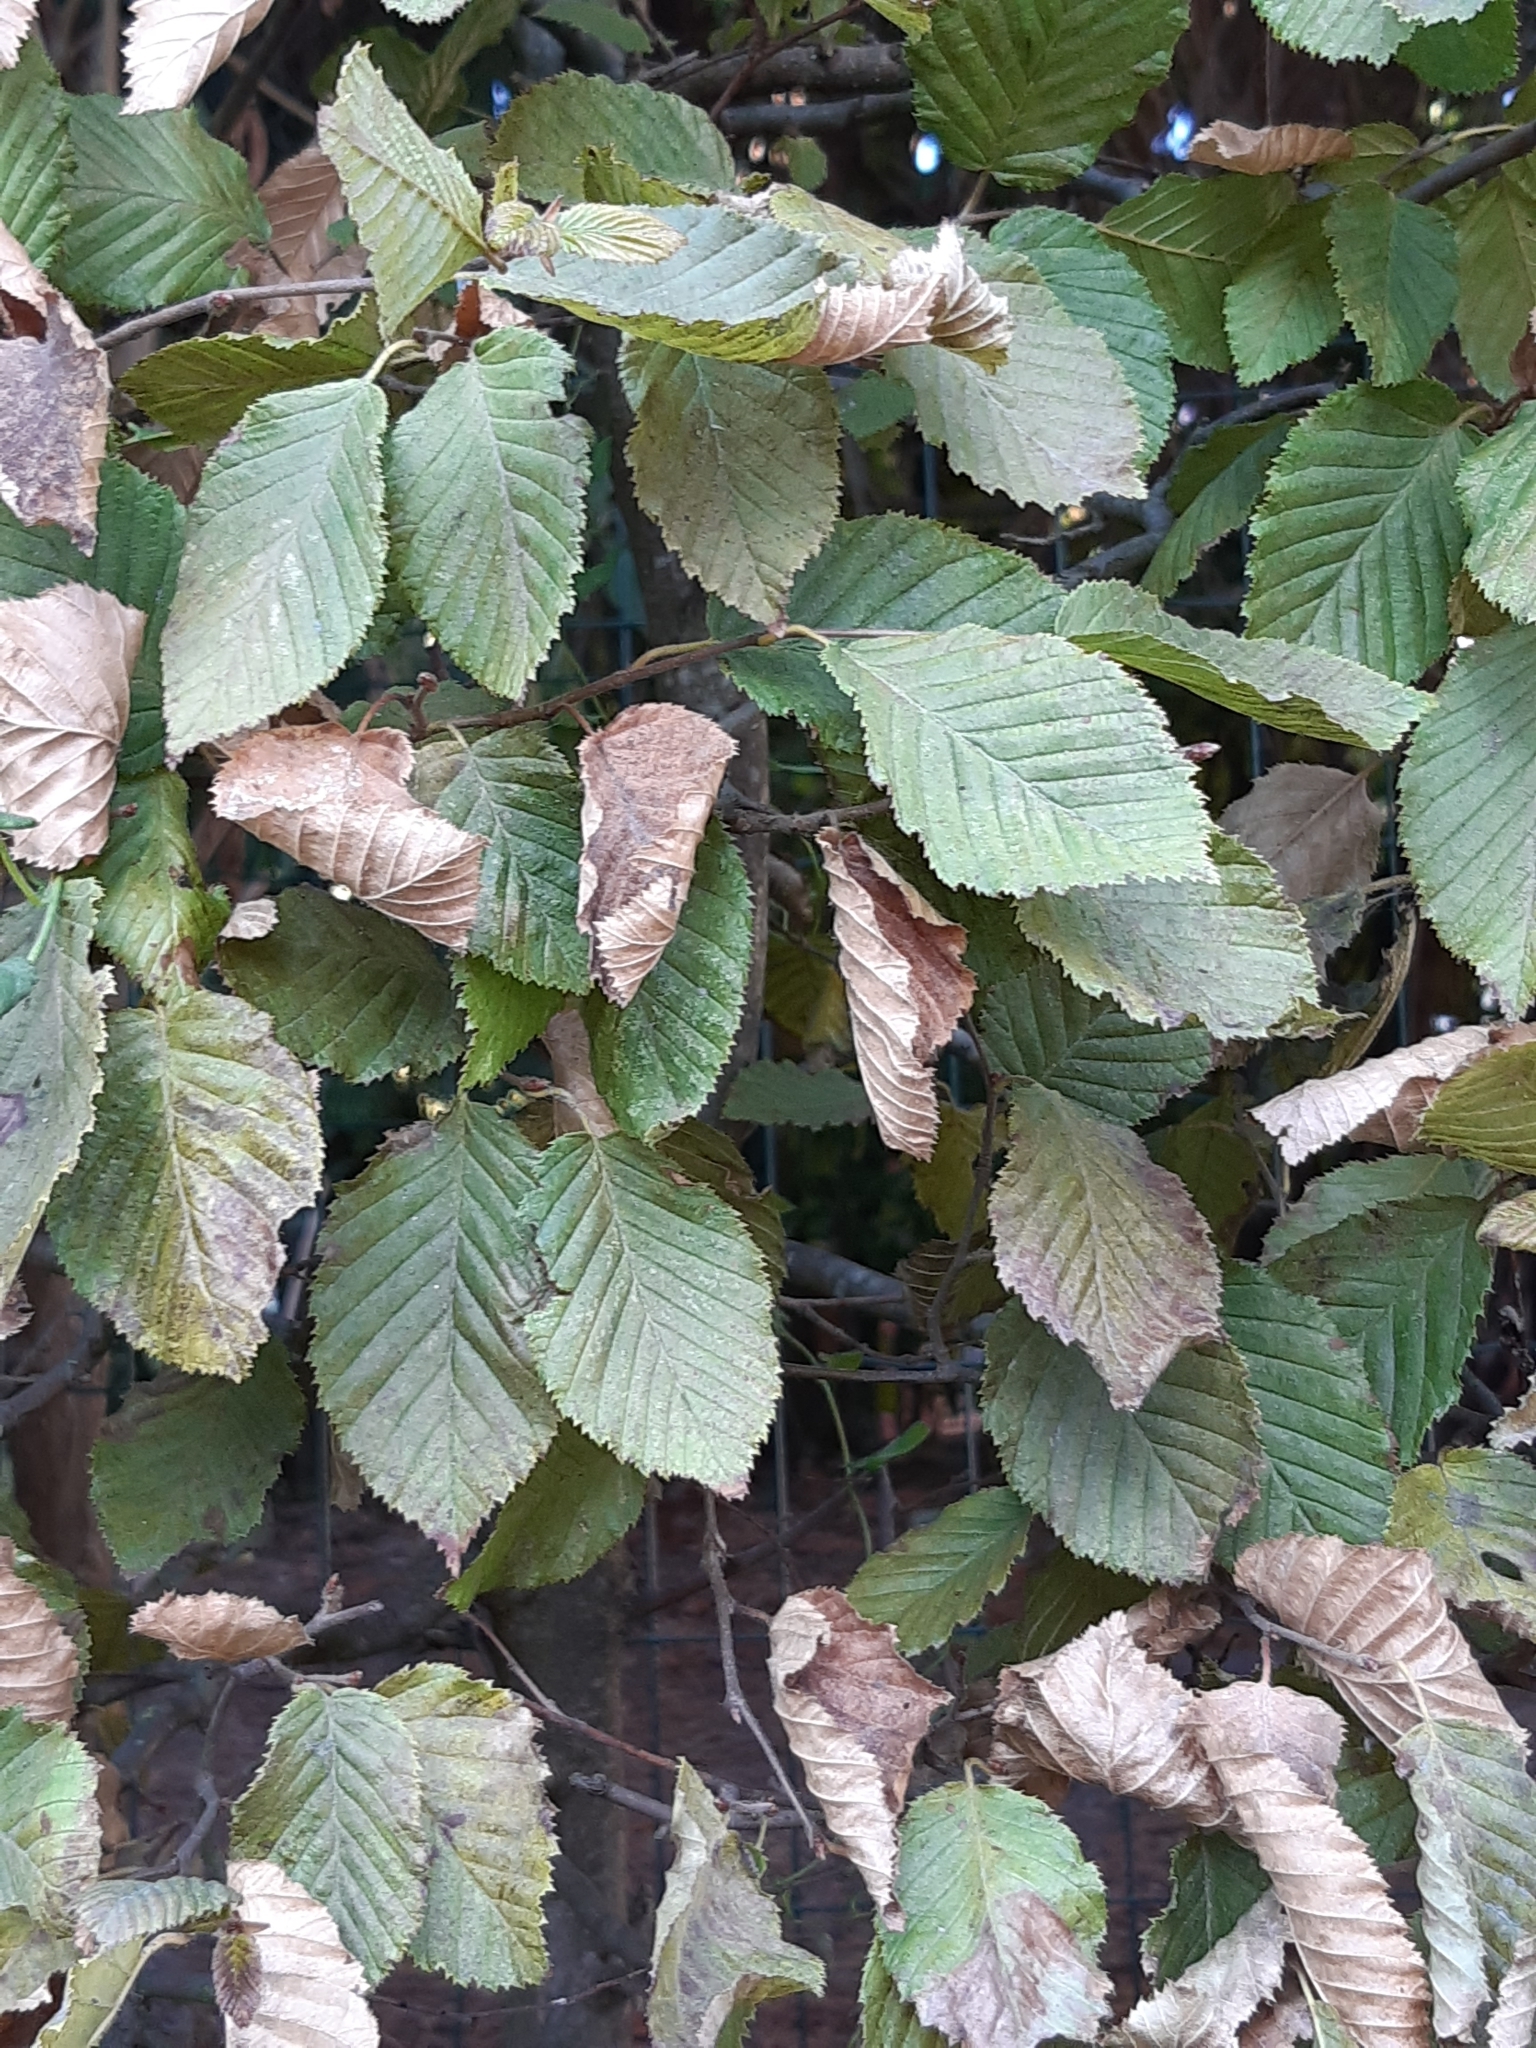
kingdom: Plantae
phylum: Tracheophyta
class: Magnoliopsida
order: Fagales
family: Betulaceae
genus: Carpinus
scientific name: Carpinus betulus
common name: Hornbeam
